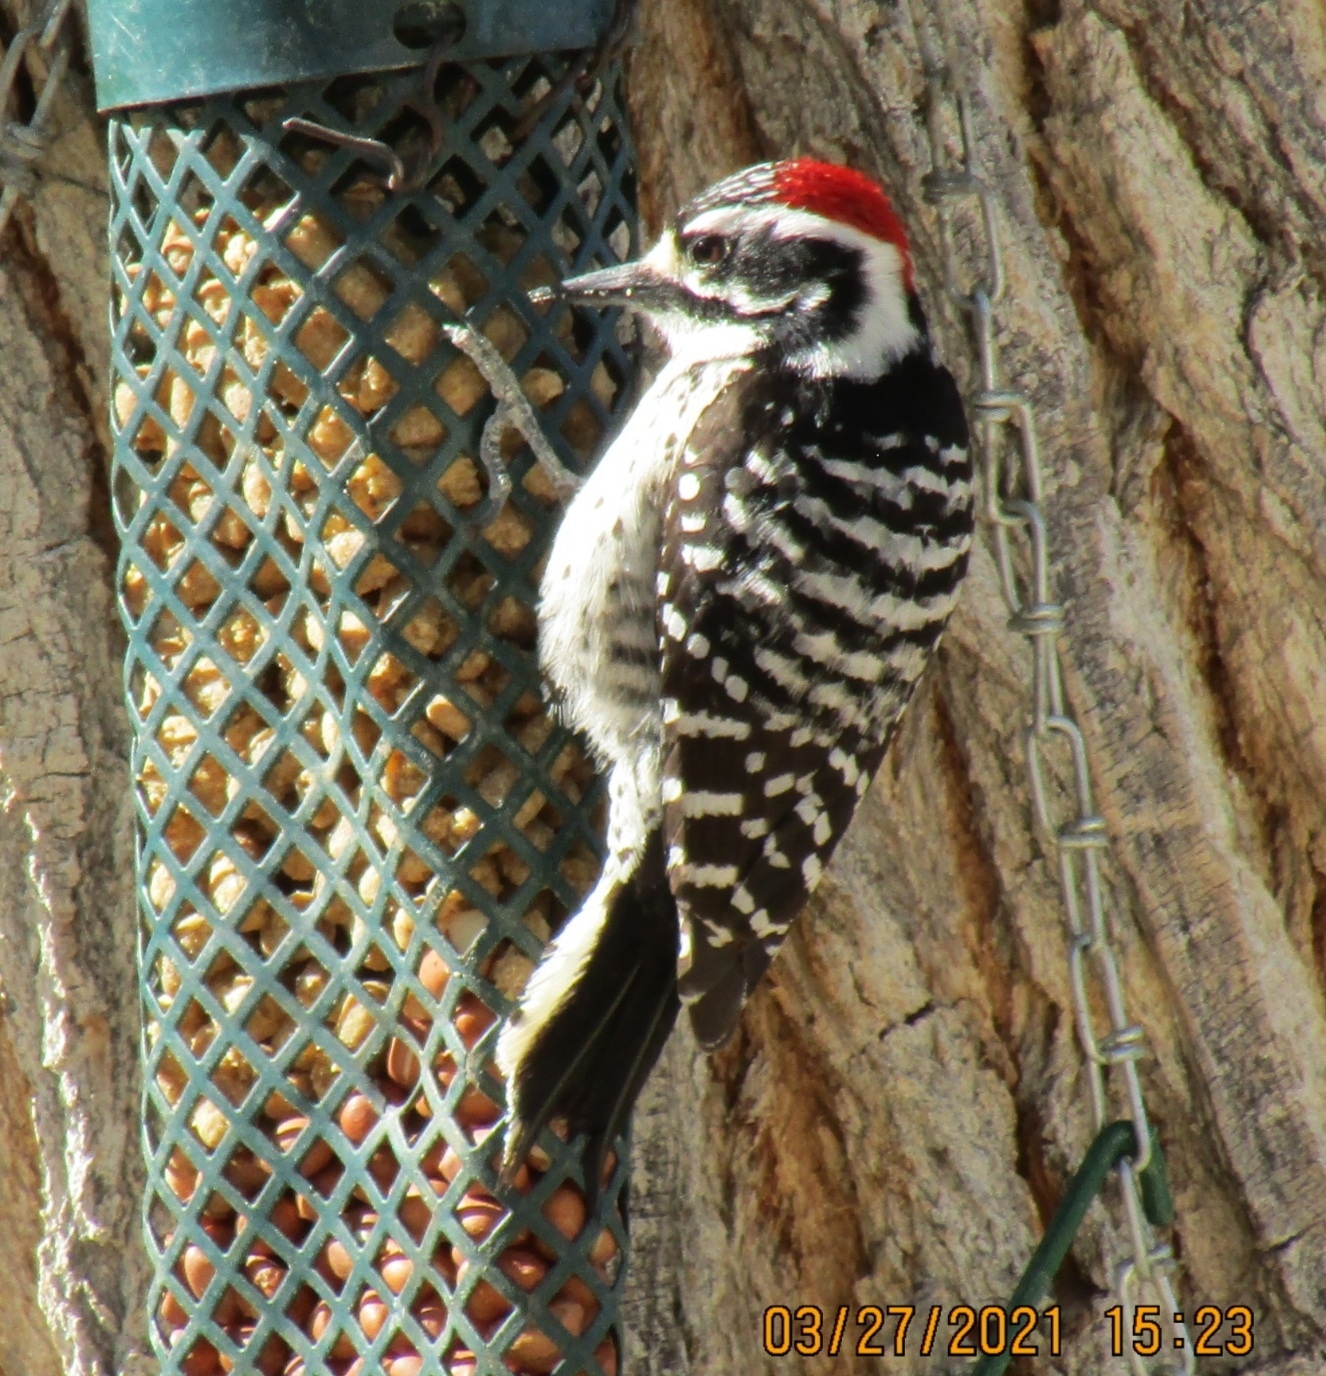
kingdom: Animalia
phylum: Chordata
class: Aves
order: Piciformes
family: Picidae
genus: Dryobates
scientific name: Dryobates nuttallii
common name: Nuttall's woodpecker
